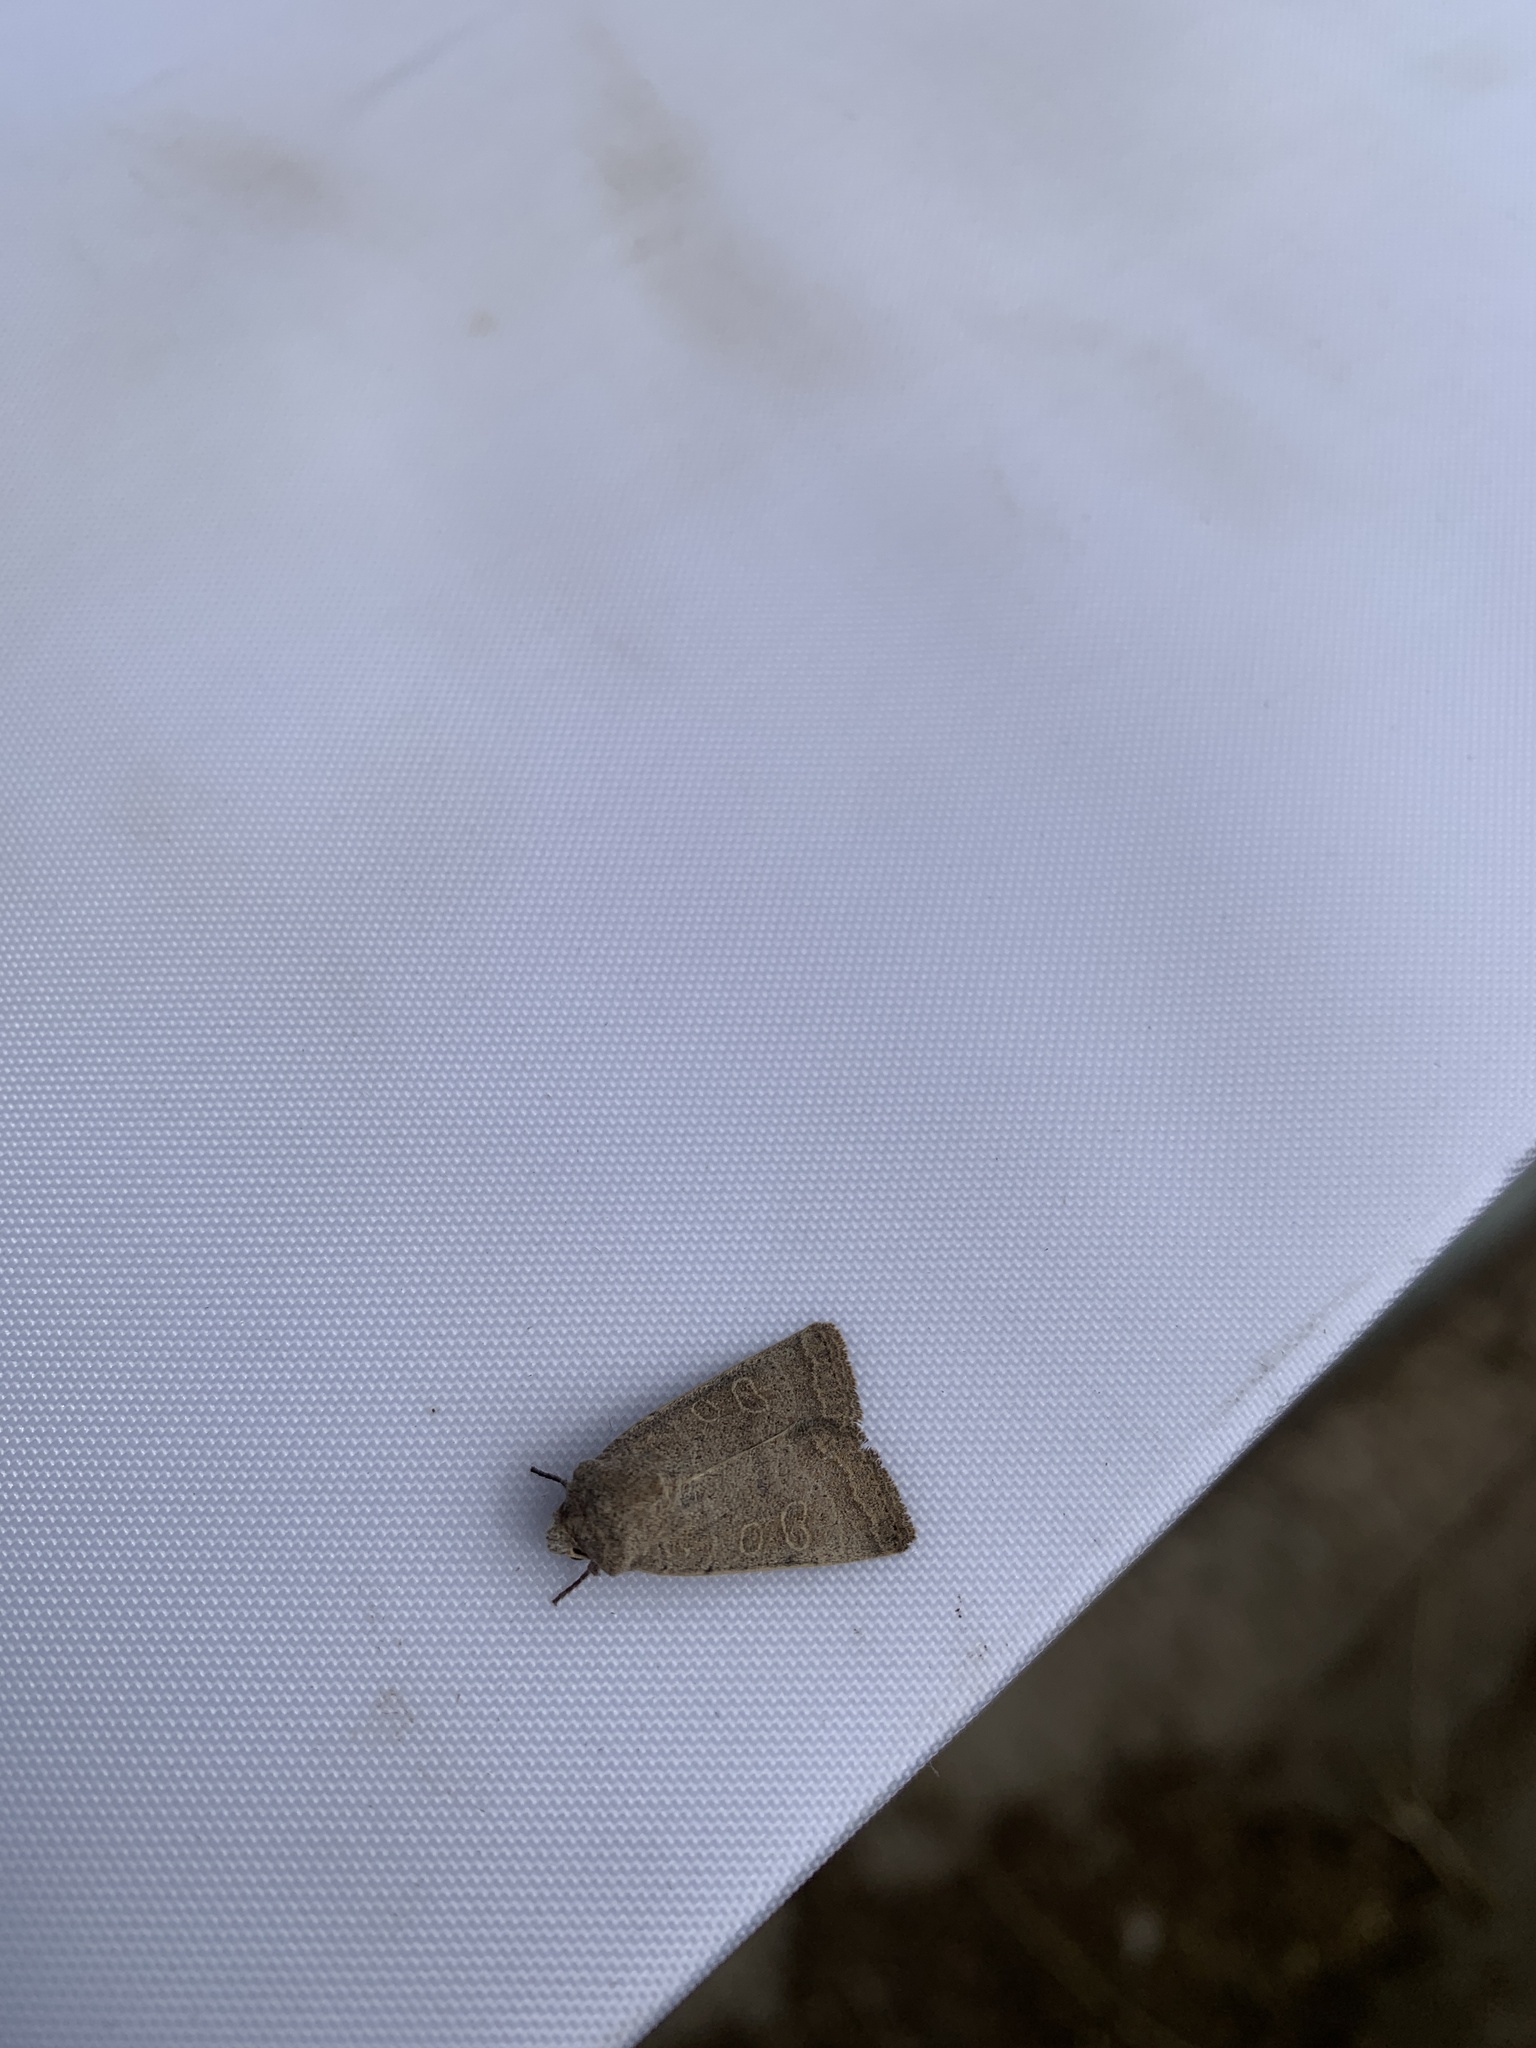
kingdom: Animalia
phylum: Arthropoda
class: Insecta
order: Lepidoptera
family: Noctuidae
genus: Hoplodrina
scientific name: Hoplodrina ambigua
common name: Vine's rustic
